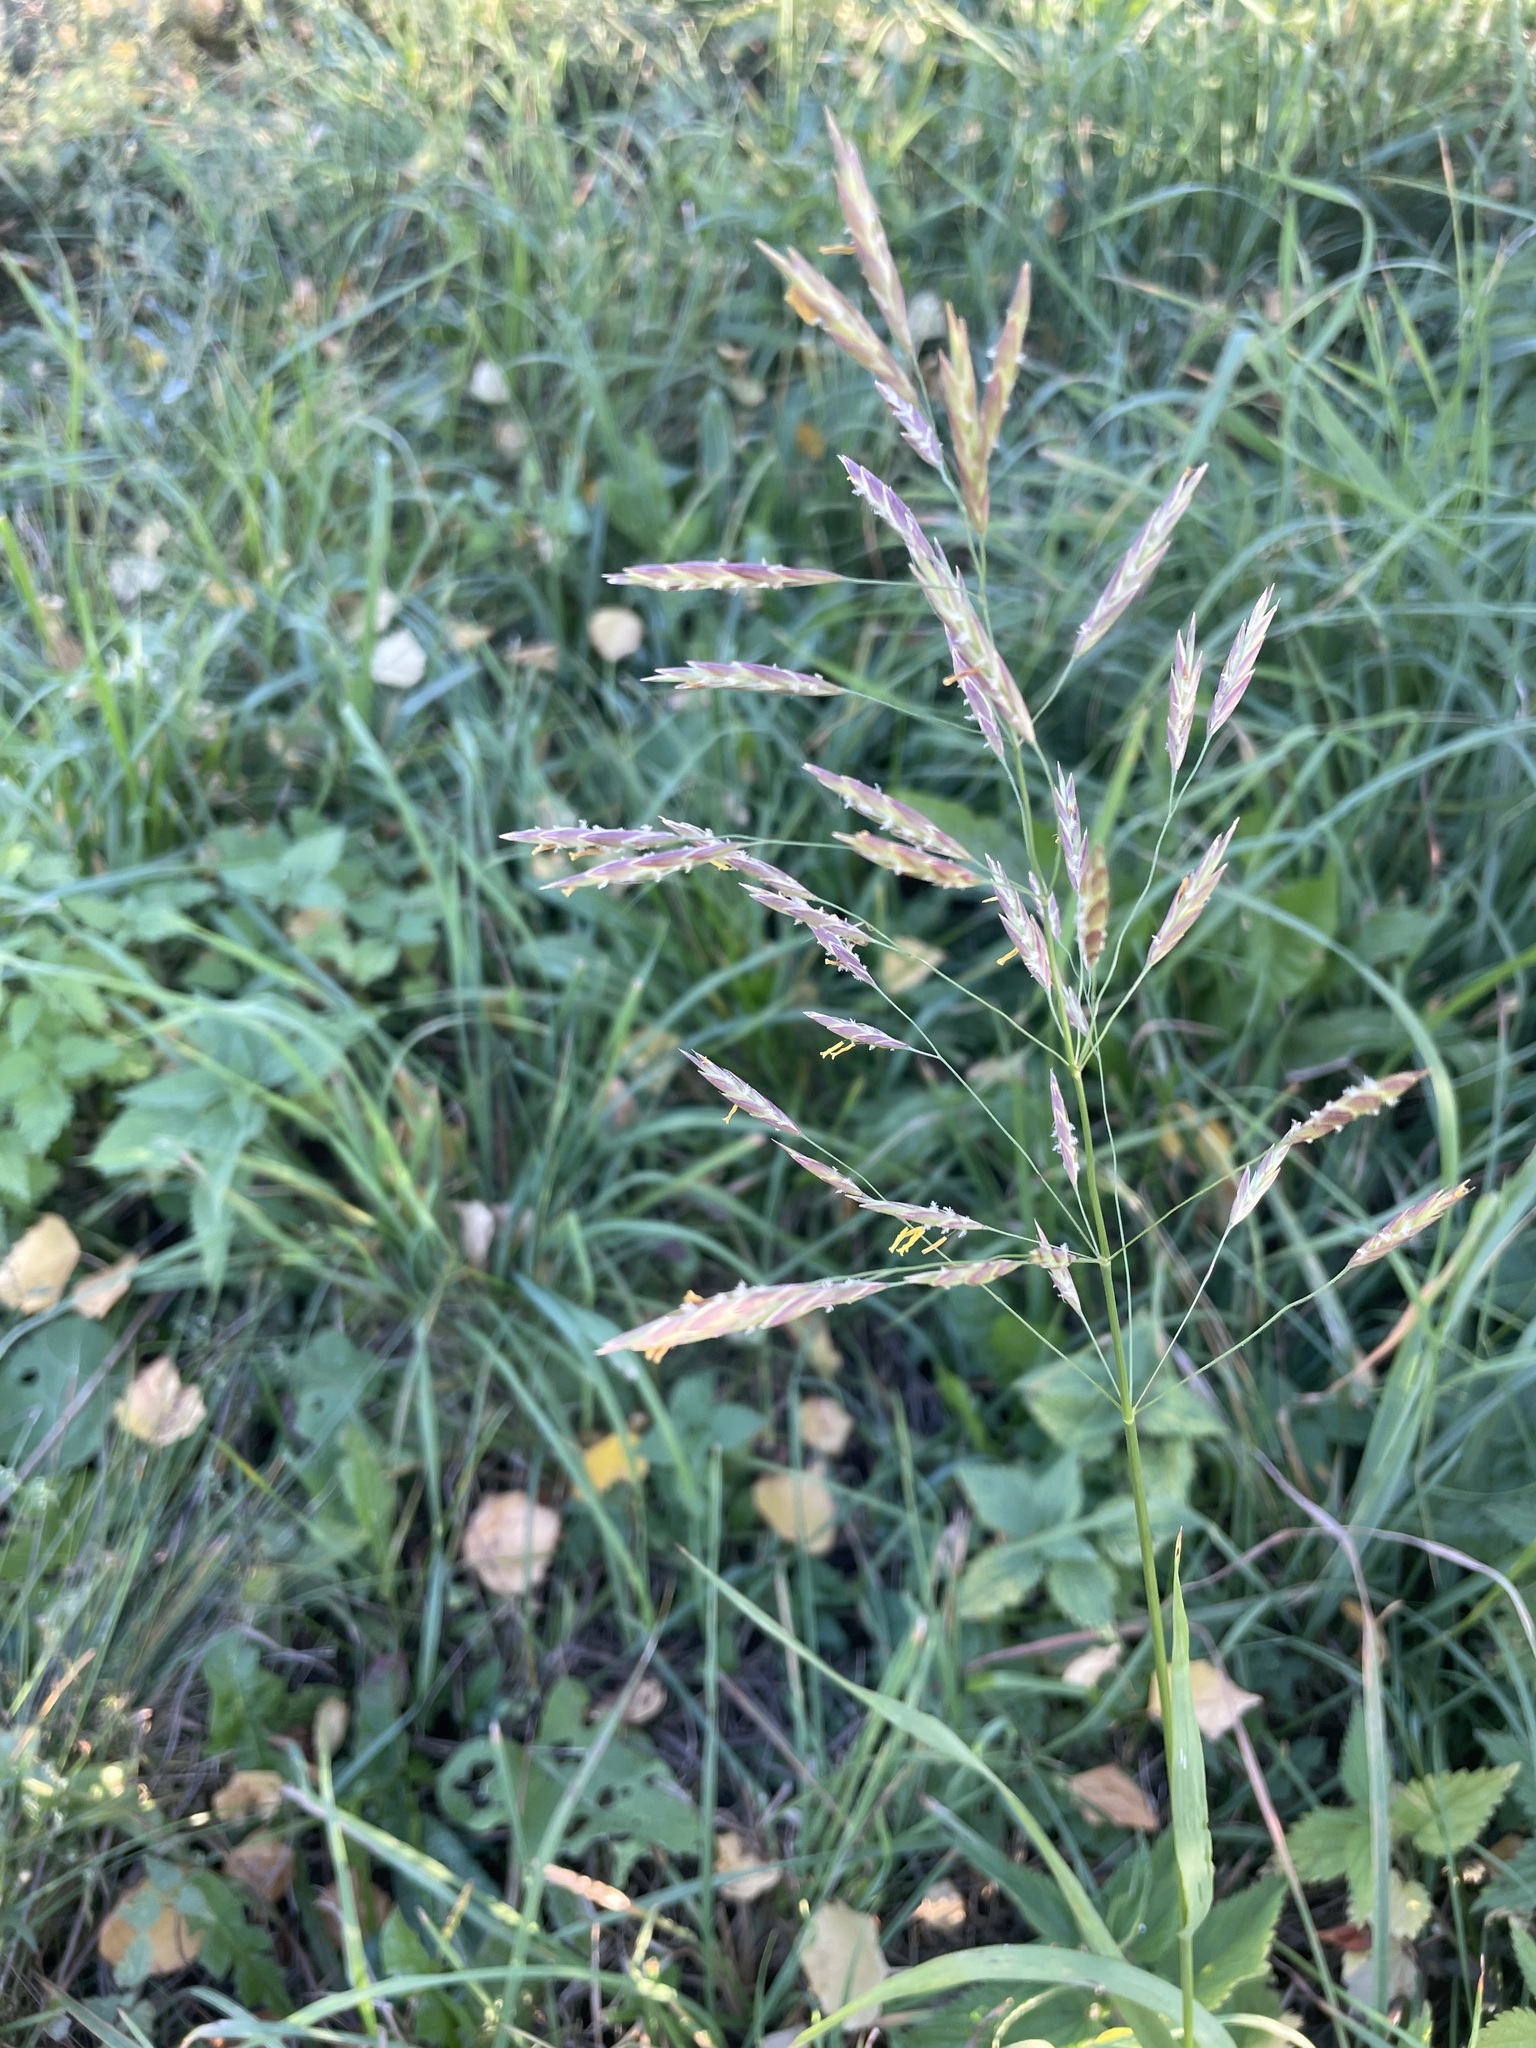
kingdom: Plantae
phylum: Tracheophyta
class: Liliopsida
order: Poales
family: Poaceae
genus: Bromus
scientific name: Bromus inermis
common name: Smooth brome
